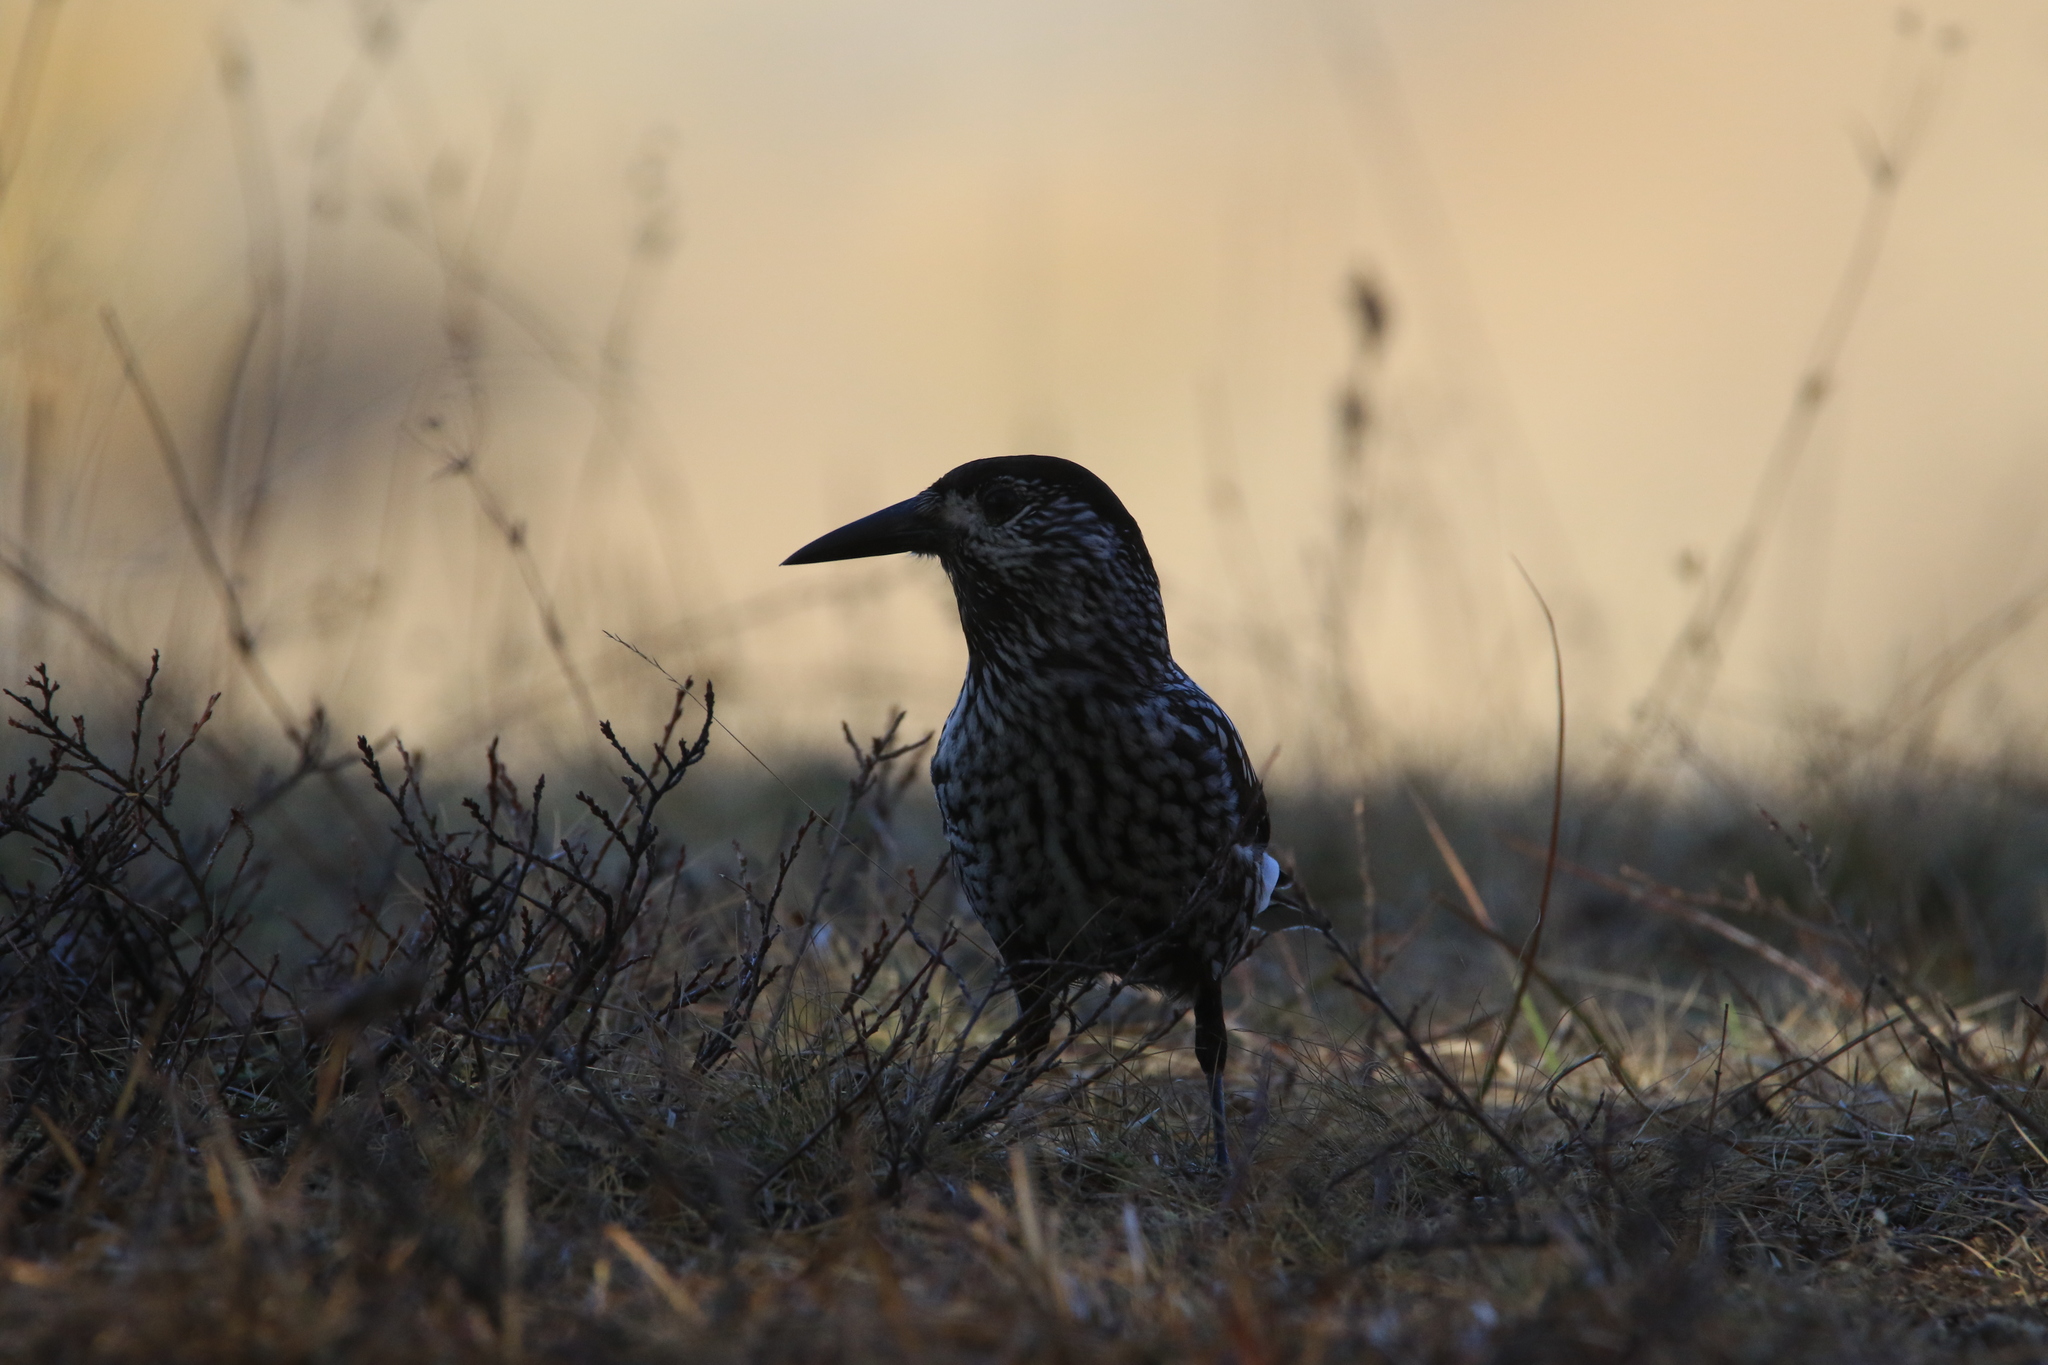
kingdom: Animalia
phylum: Chordata
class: Aves
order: Passeriformes
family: Corvidae
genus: Nucifraga
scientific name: Nucifraga caryocatactes
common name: Spotted nutcracker
